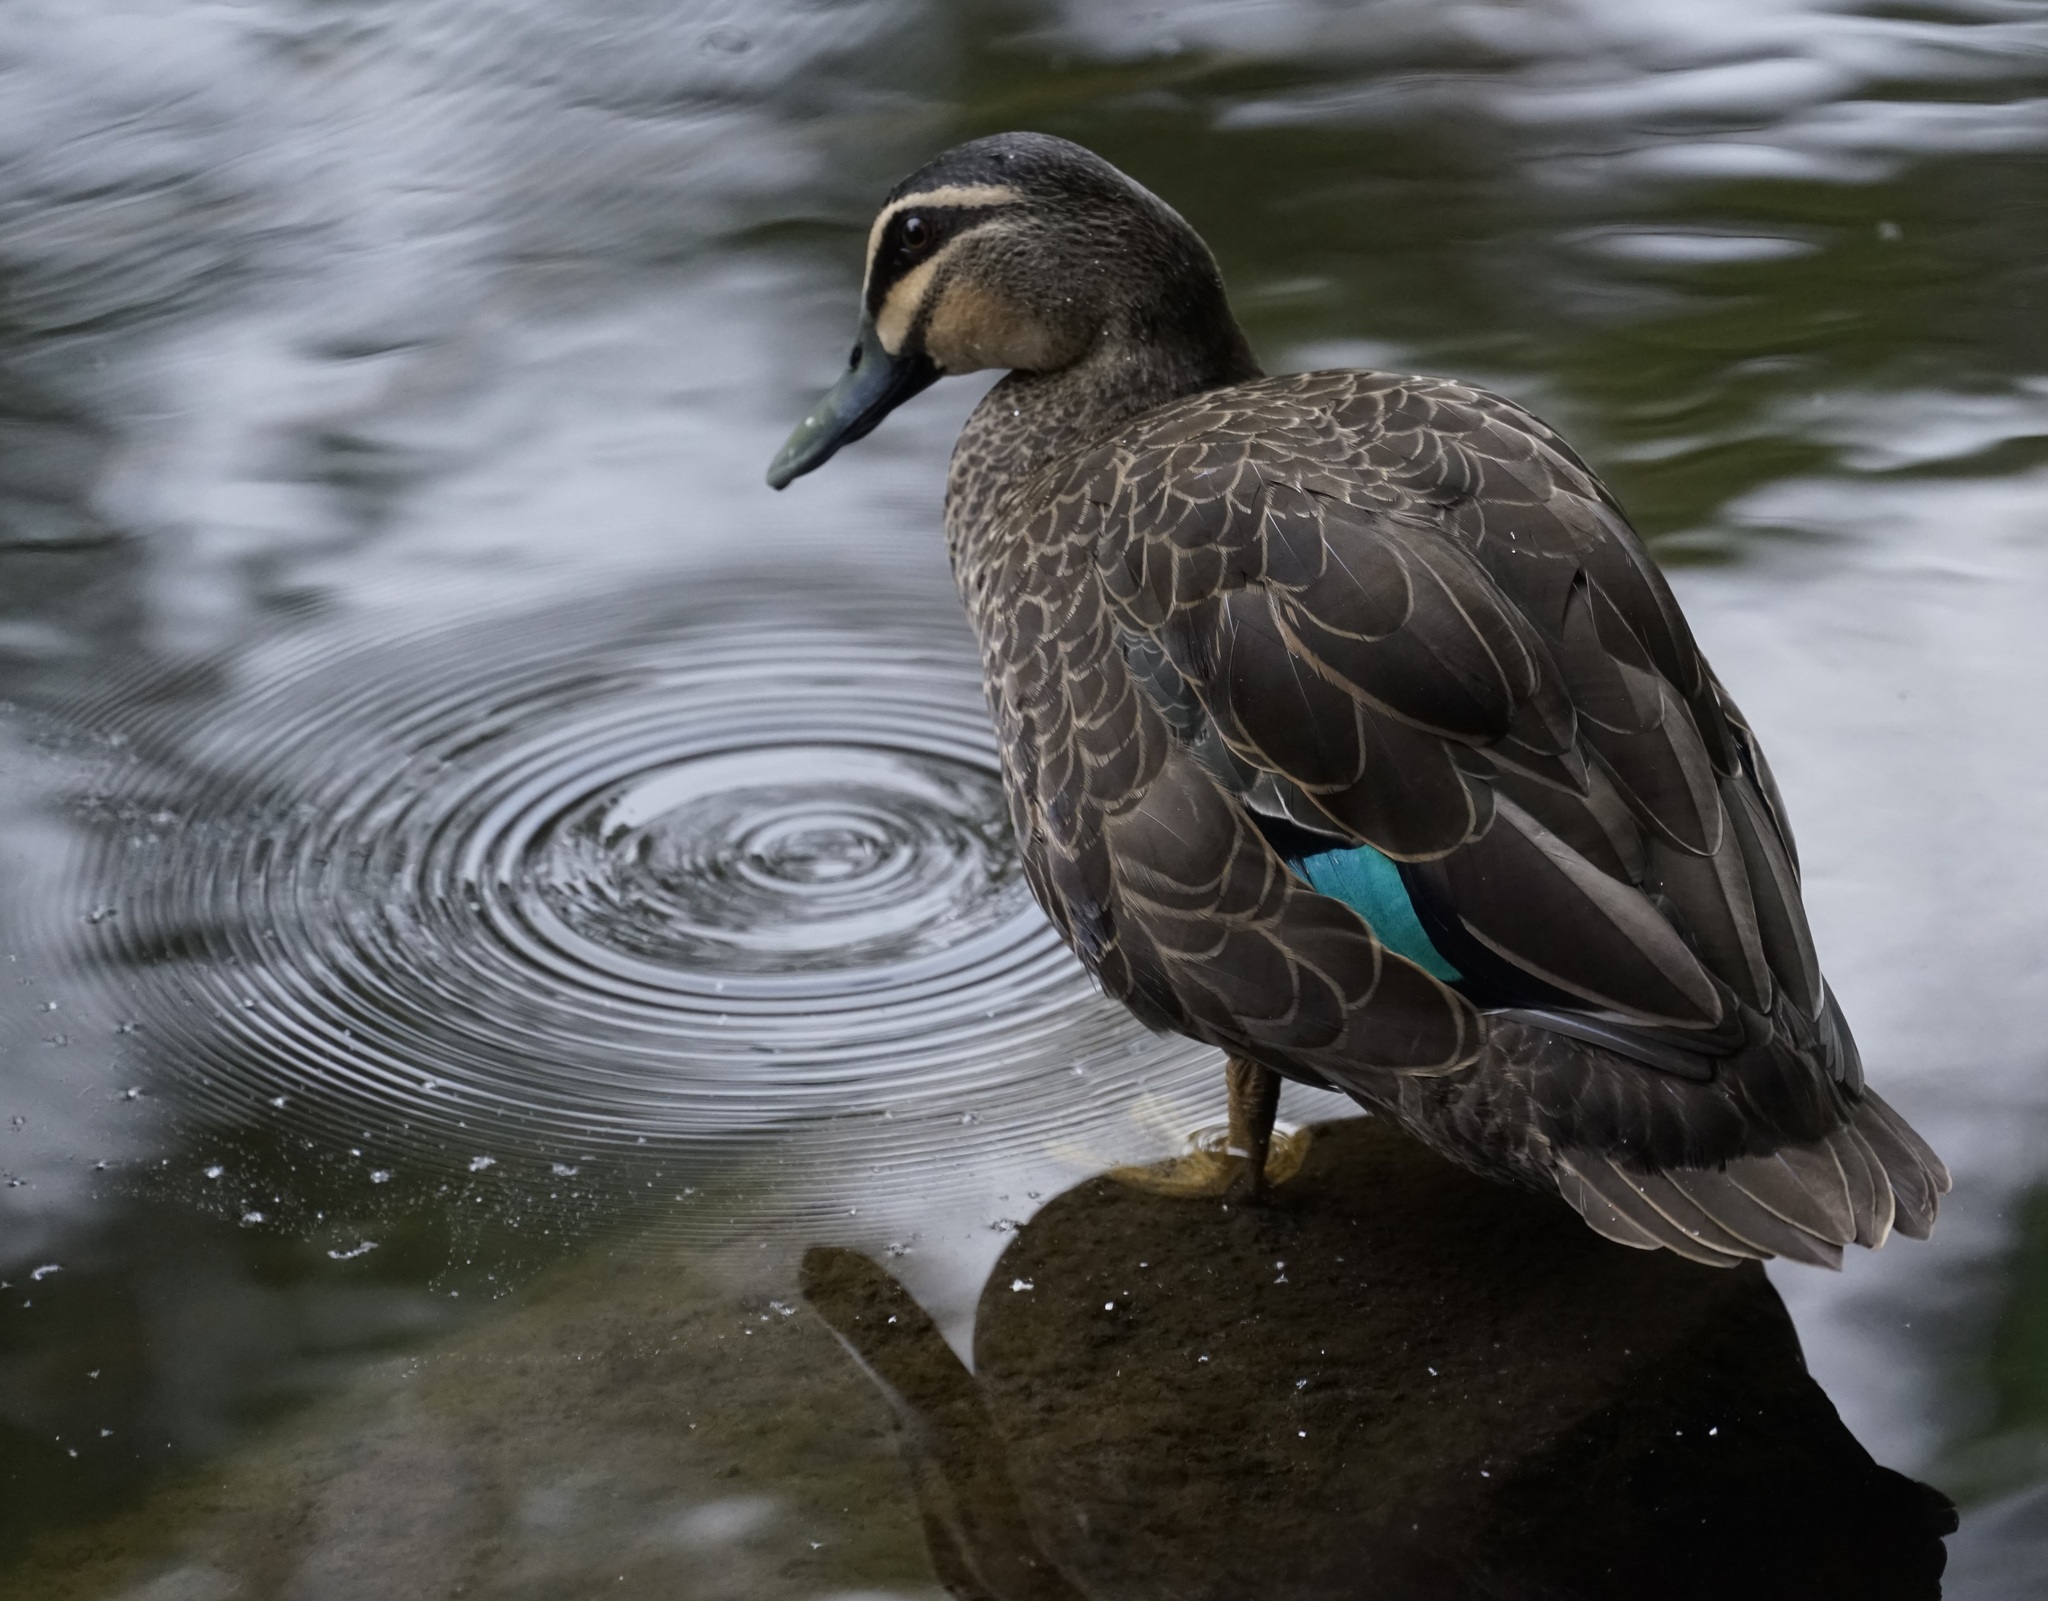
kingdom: Animalia
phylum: Chordata
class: Aves
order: Anseriformes
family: Anatidae
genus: Anas
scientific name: Anas superciliosa
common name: Pacific black duck
